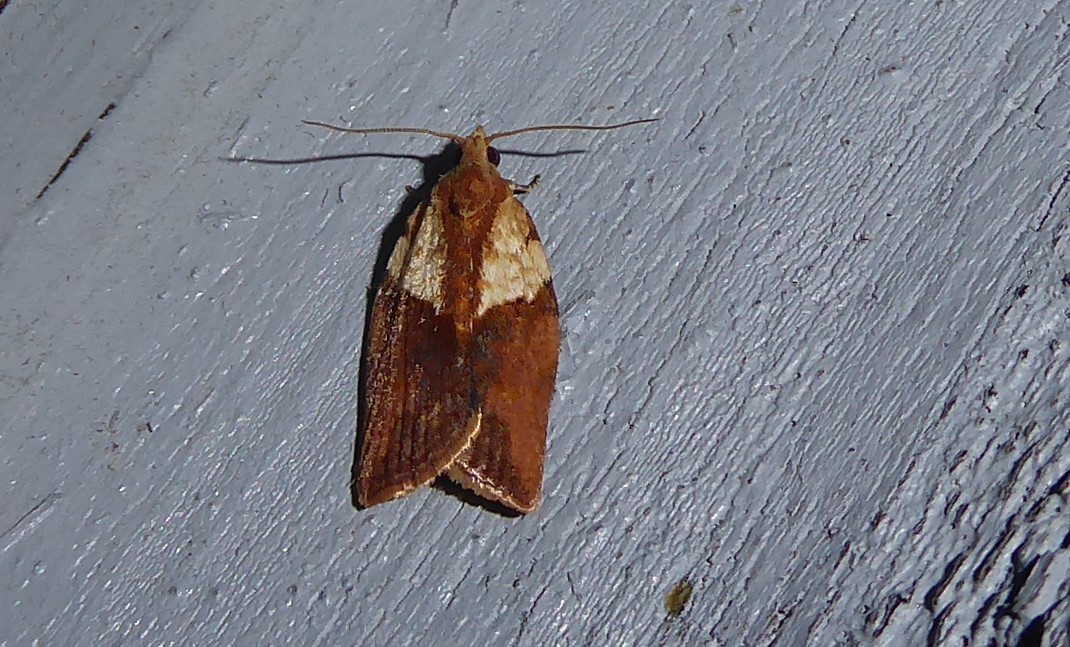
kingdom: Animalia
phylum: Arthropoda
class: Insecta
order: Lepidoptera
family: Tortricidae
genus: Epiphyas
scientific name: Epiphyas postvittana
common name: Light brown apple moth
